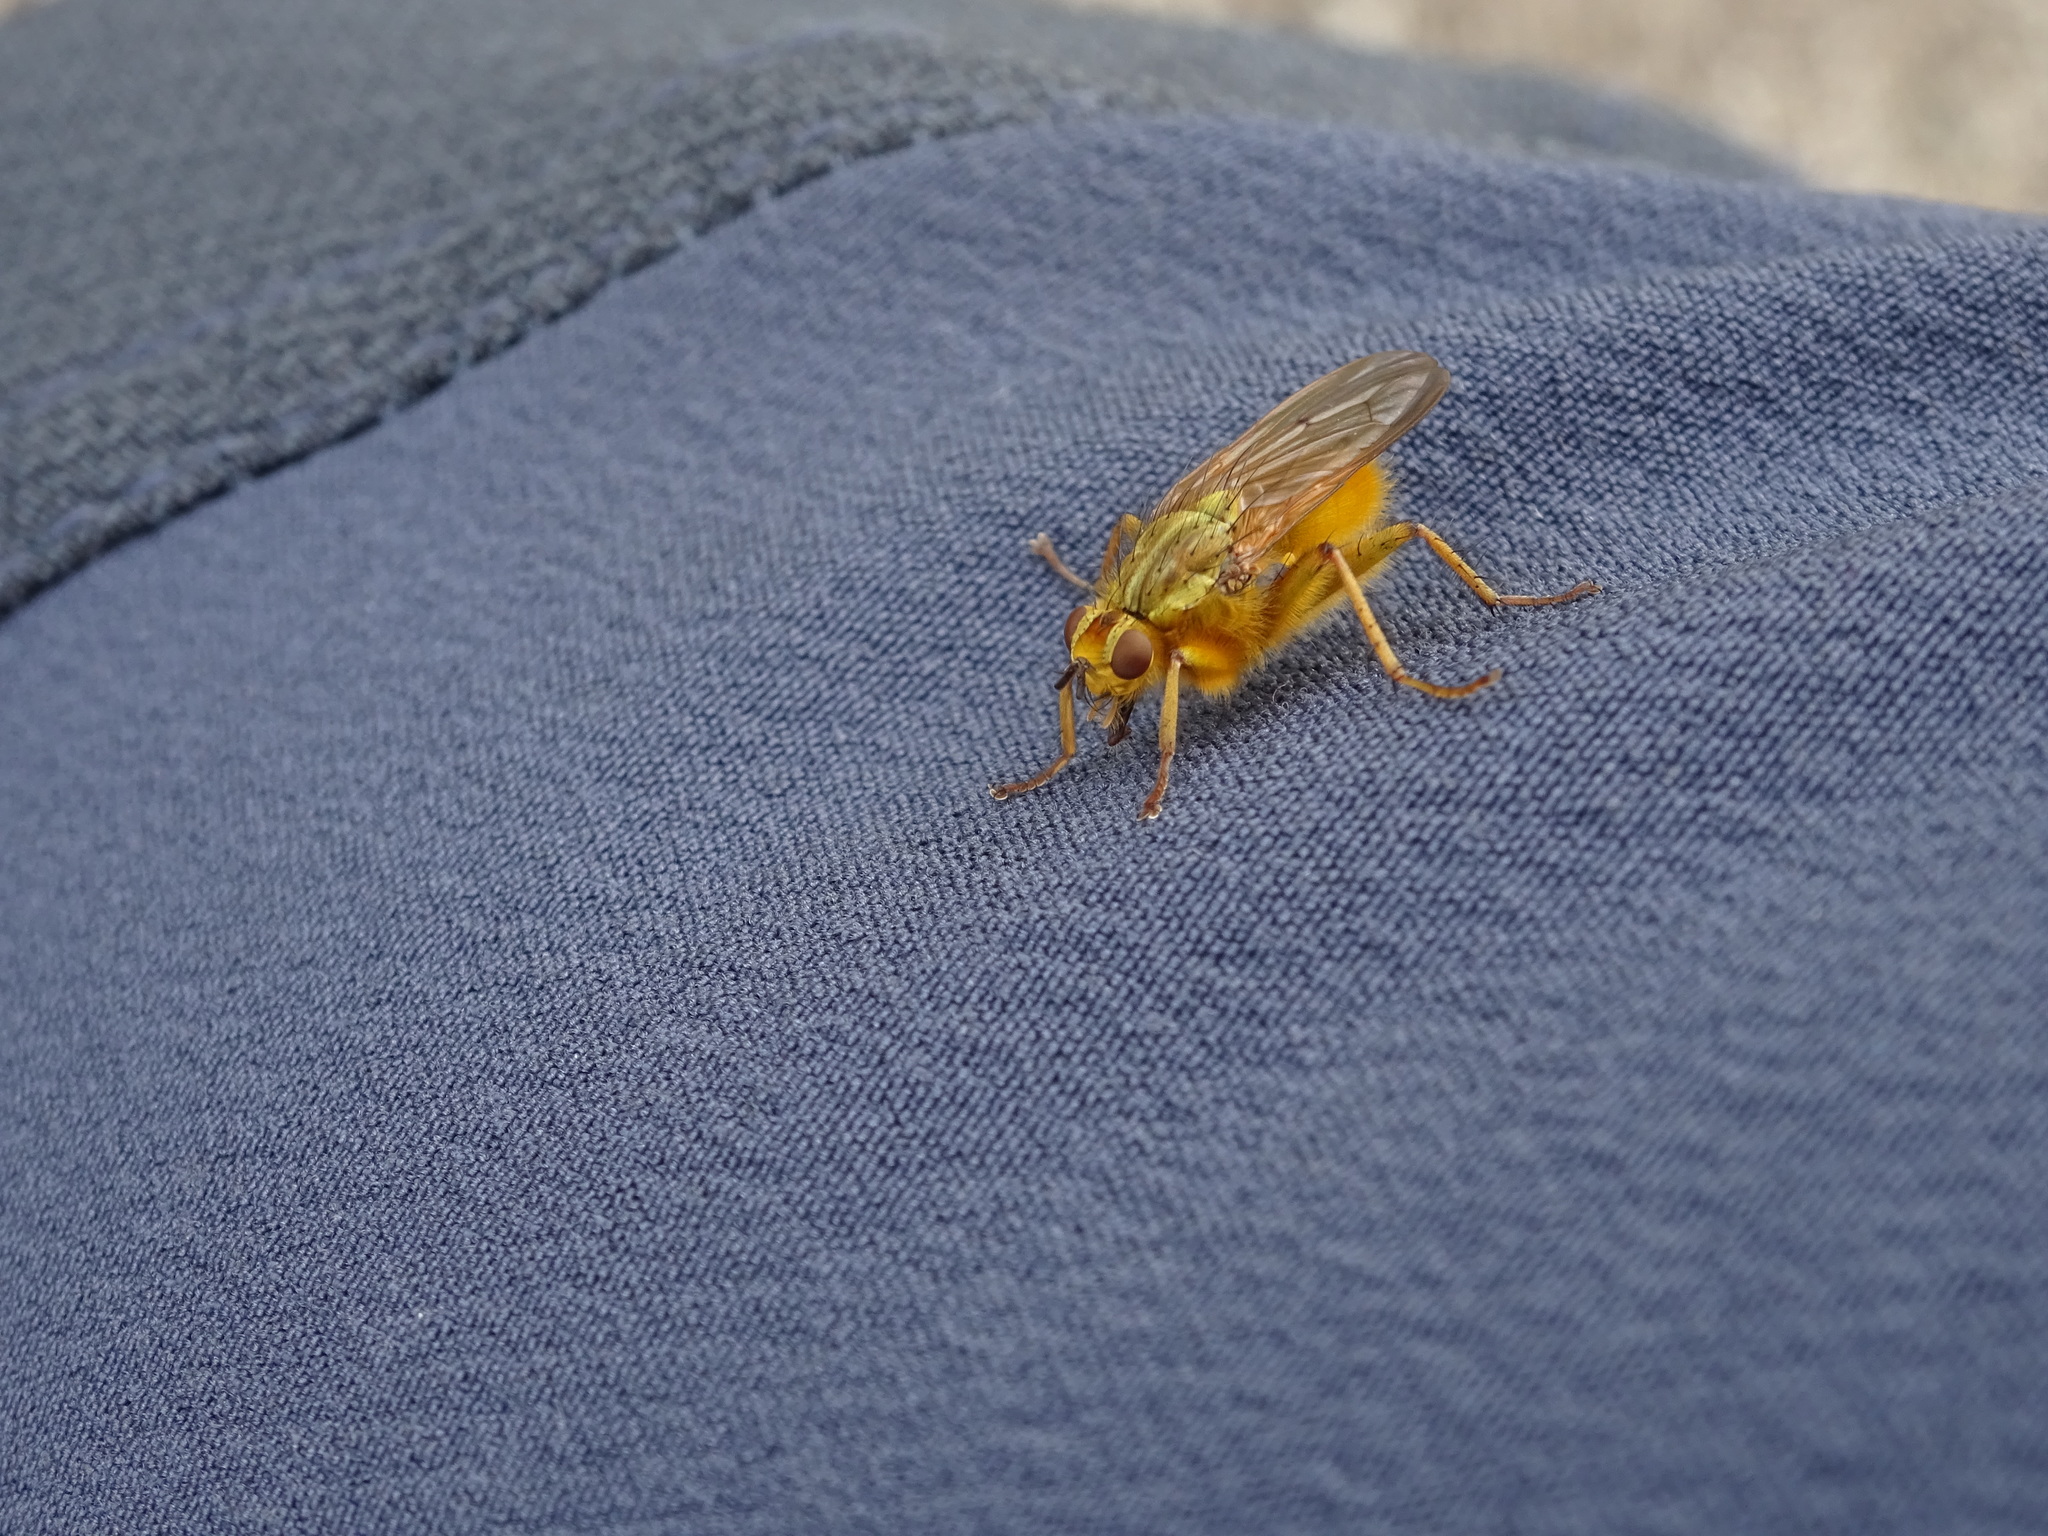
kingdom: Animalia
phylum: Arthropoda
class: Insecta
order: Diptera
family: Scathophagidae
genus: Scathophaga
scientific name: Scathophaga stercoraria
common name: Yellow dung fly
